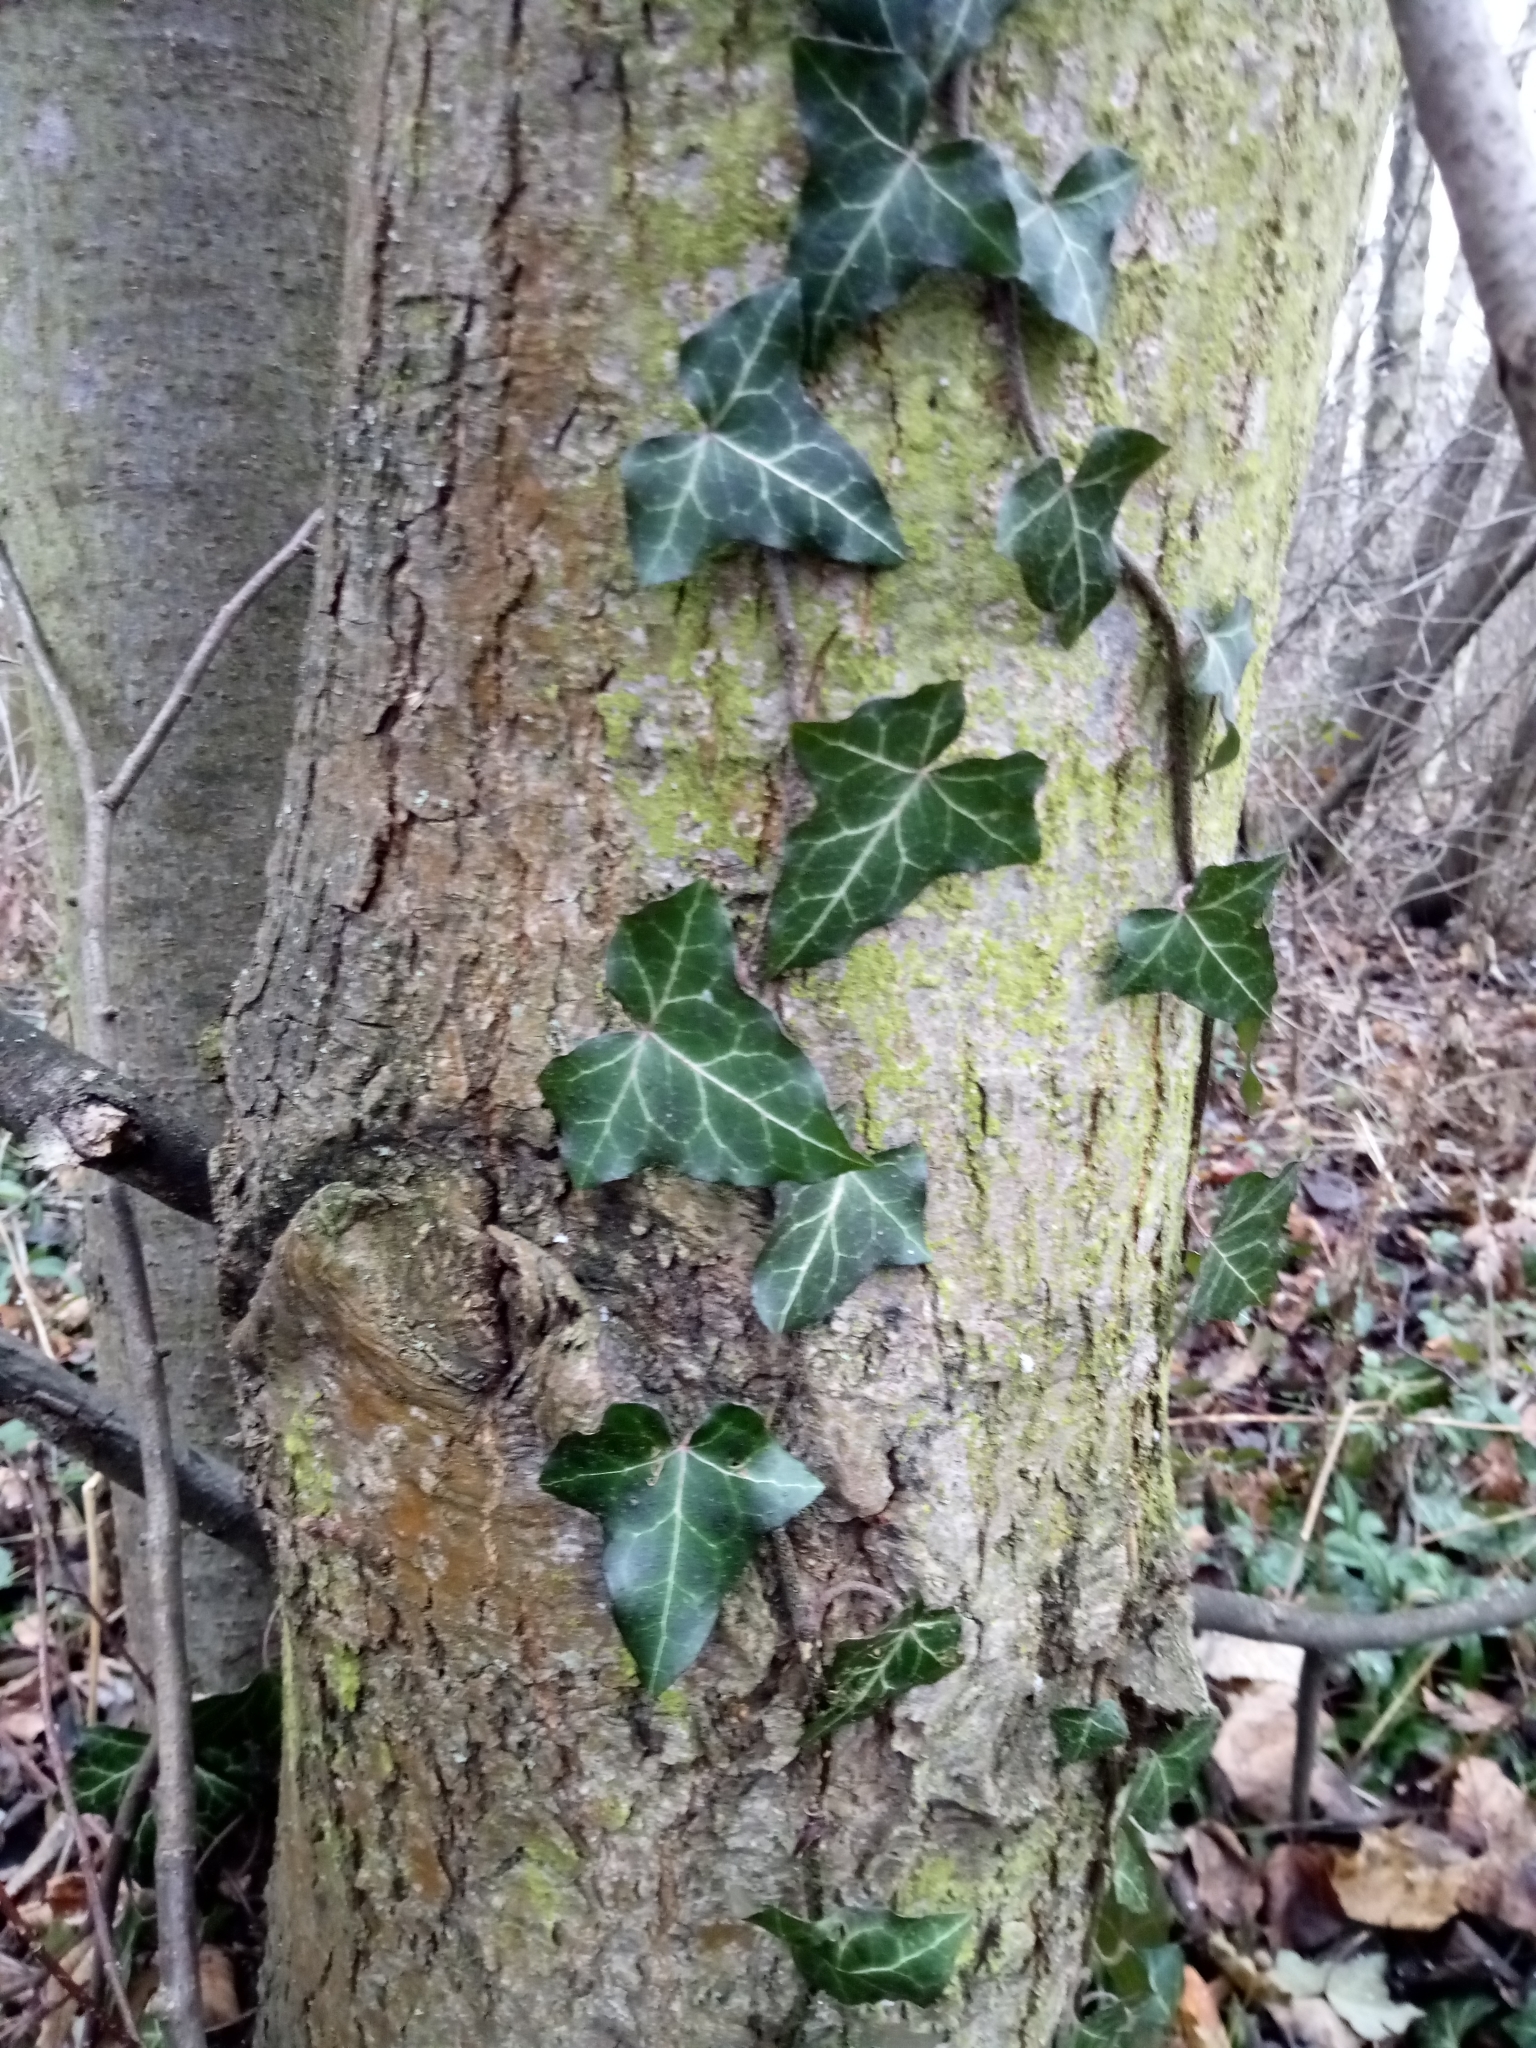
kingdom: Plantae
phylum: Tracheophyta
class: Magnoliopsida
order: Apiales
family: Araliaceae
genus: Hedera
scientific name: Hedera helix
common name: Ivy
